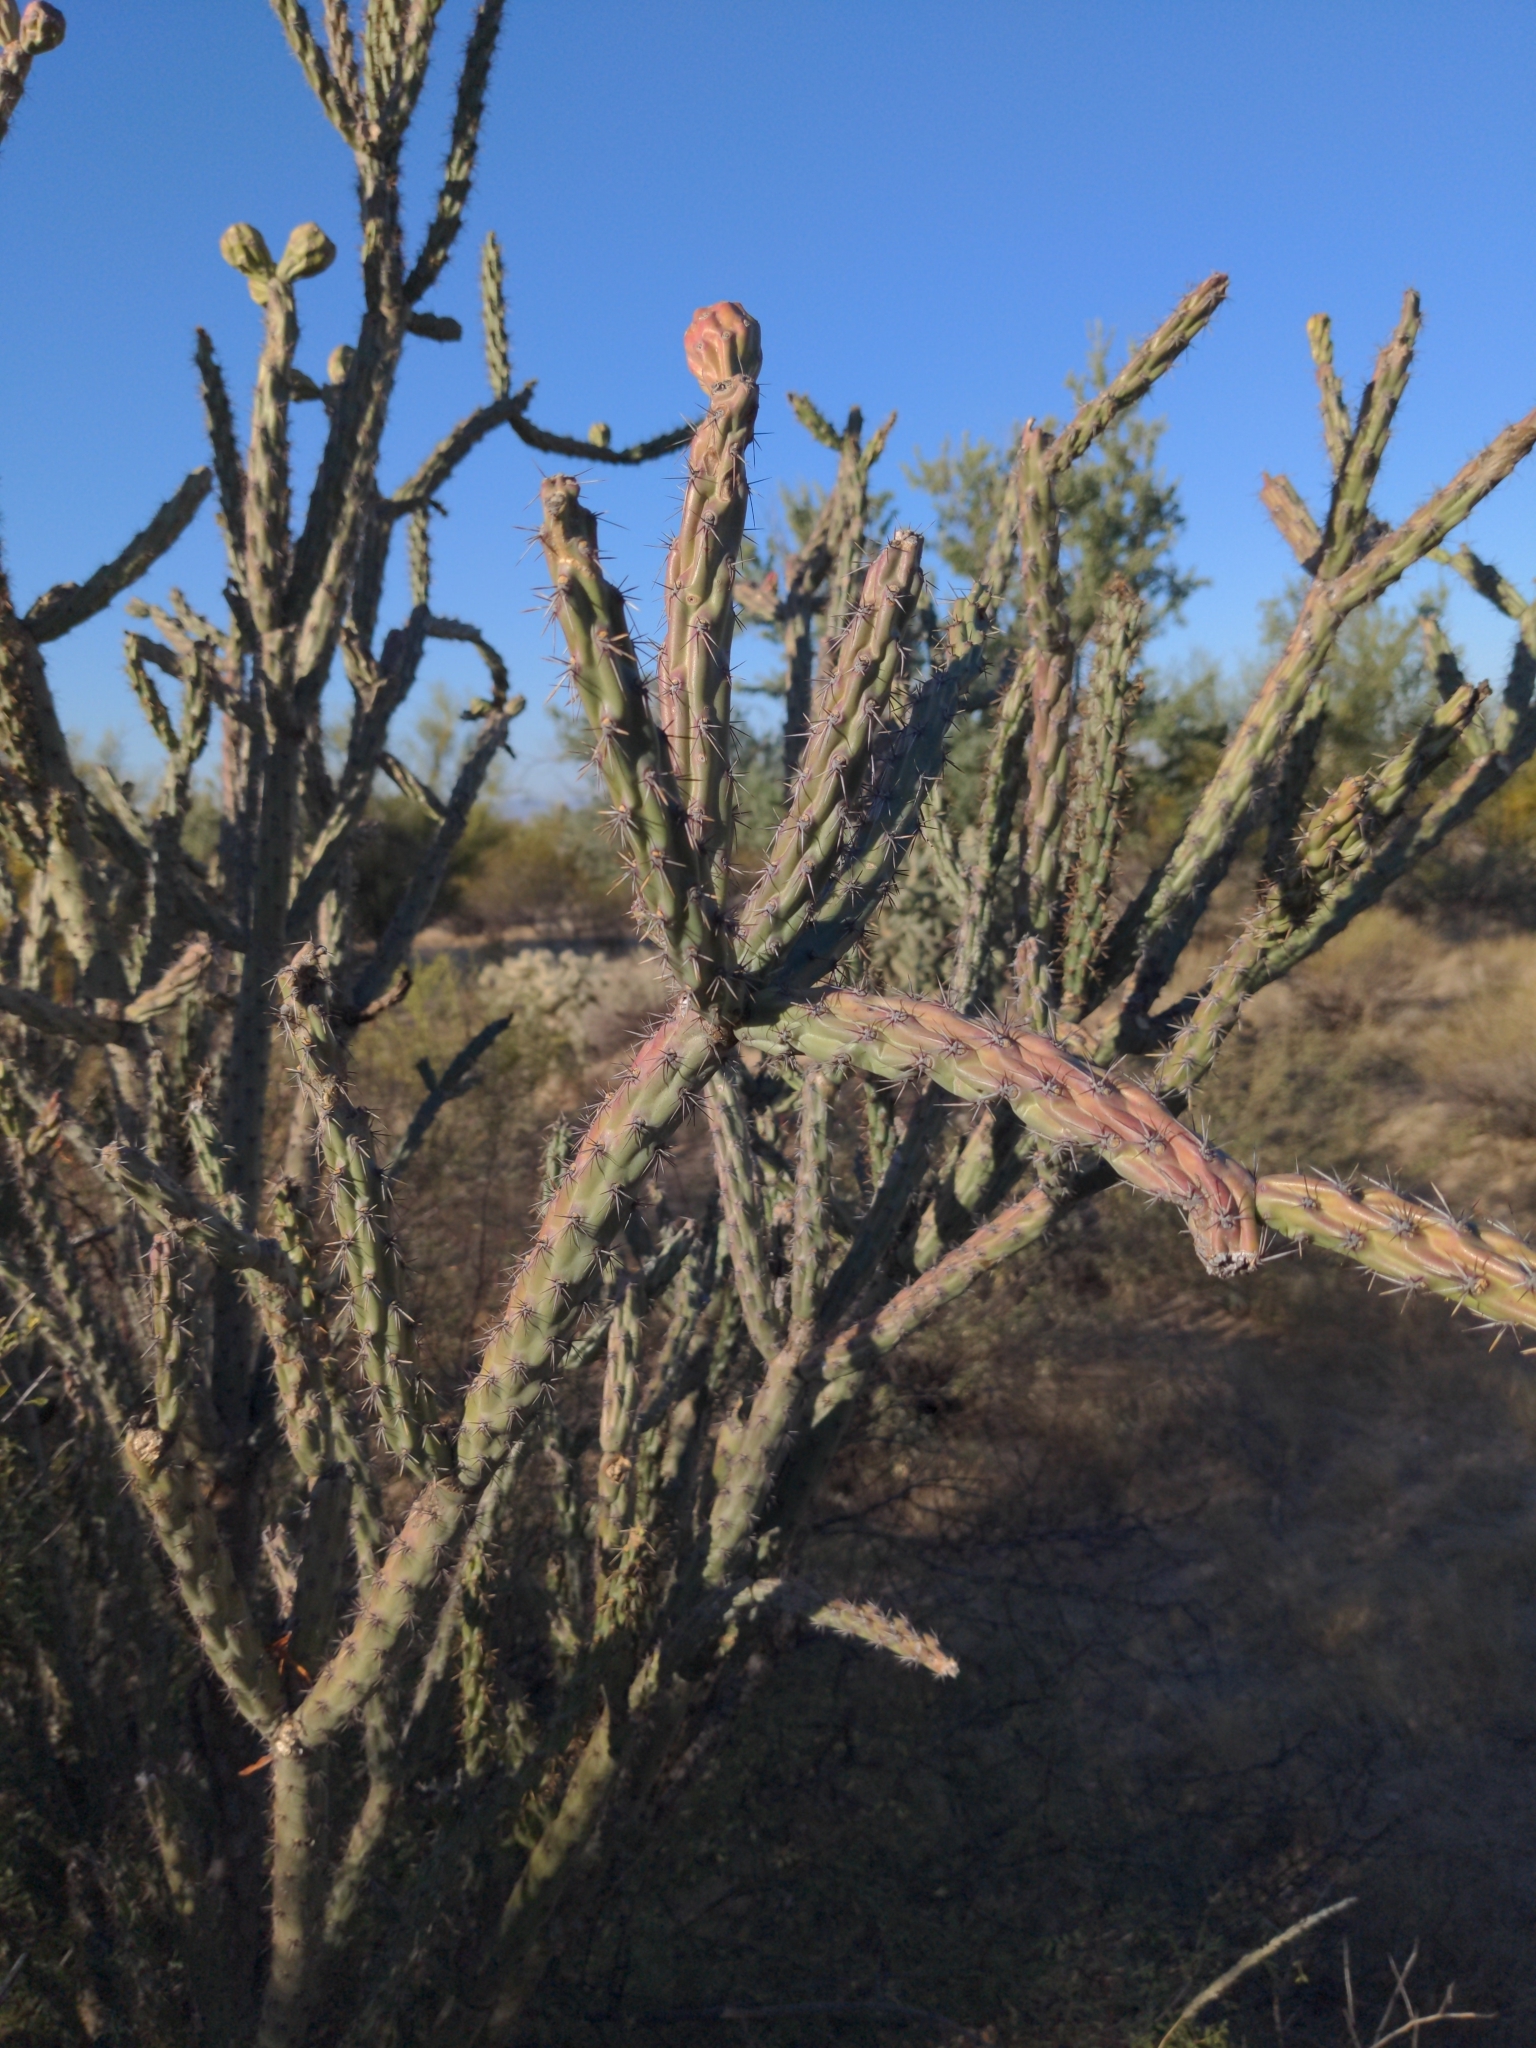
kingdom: Plantae
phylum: Tracheophyta
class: Magnoliopsida
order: Caryophyllales
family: Cactaceae
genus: Cylindropuntia
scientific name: Cylindropuntia thurberi
